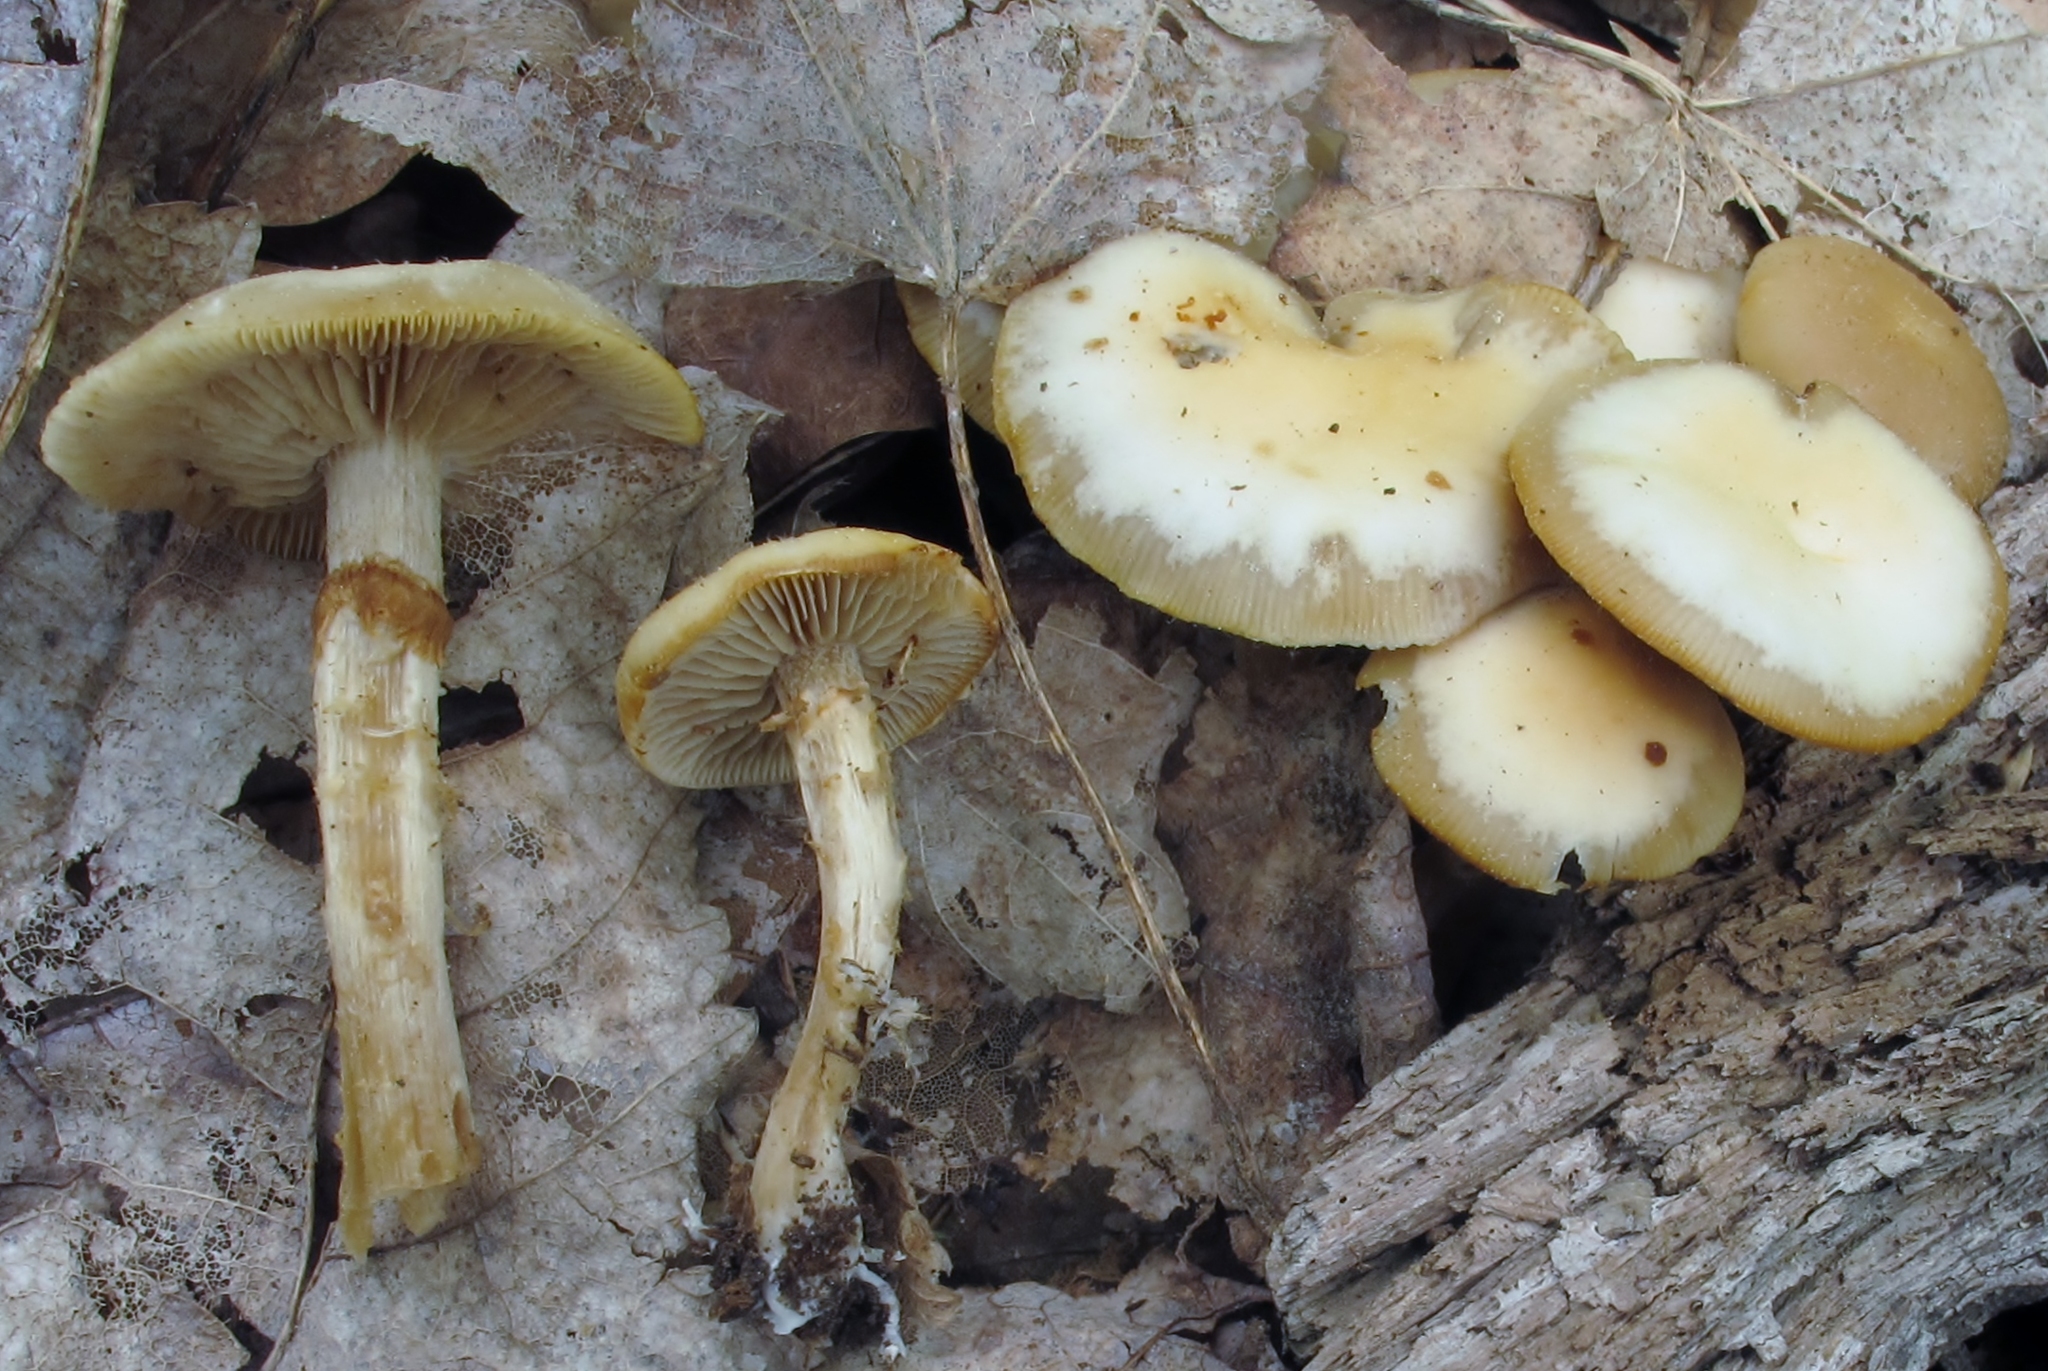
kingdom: Fungi
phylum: Basidiomycota
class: Agaricomycetes
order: Agaricales
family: Strophariaceae
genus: Kuehneromyces
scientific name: Kuehneromyces marginellus
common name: Sheathed woodtuft
